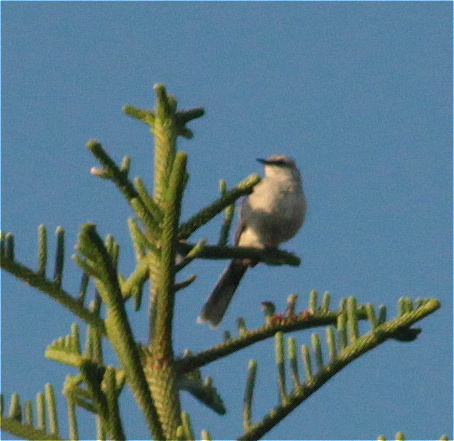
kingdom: Animalia
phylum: Chordata
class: Aves
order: Passeriformes
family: Mimidae
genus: Mimus
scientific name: Mimus gilvus
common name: Tropical mockingbird
